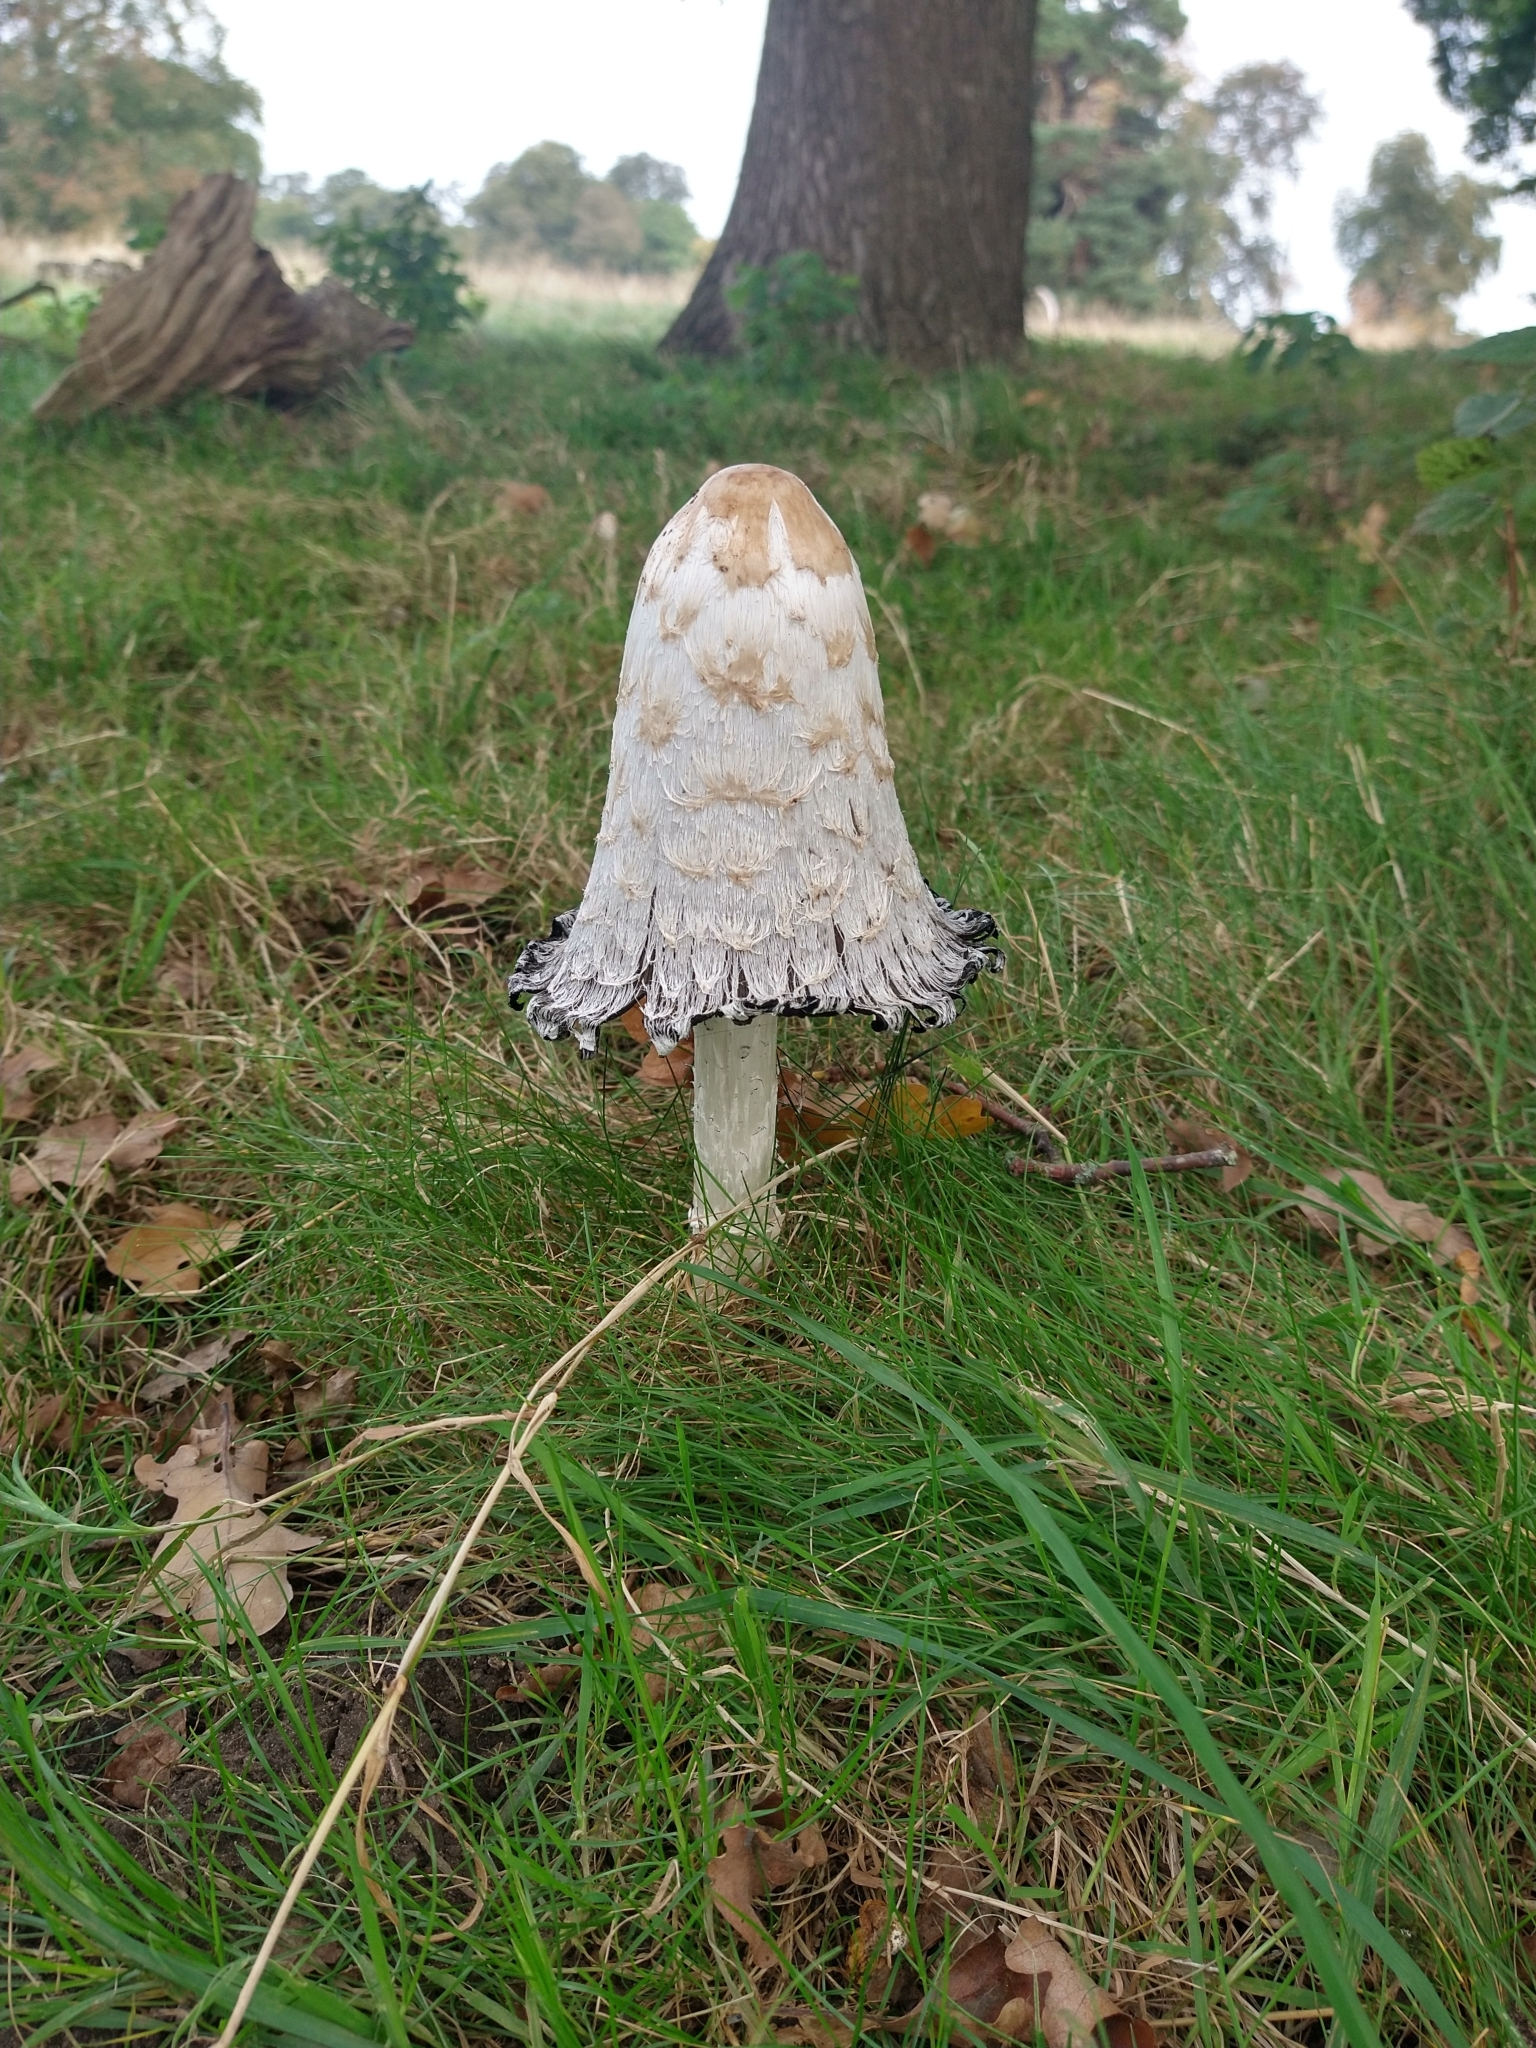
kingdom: Fungi
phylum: Basidiomycota
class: Agaricomycetes
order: Agaricales
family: Agaricaceae
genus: Coprinus
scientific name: Coprinus comatus
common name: Lawyer's wig
